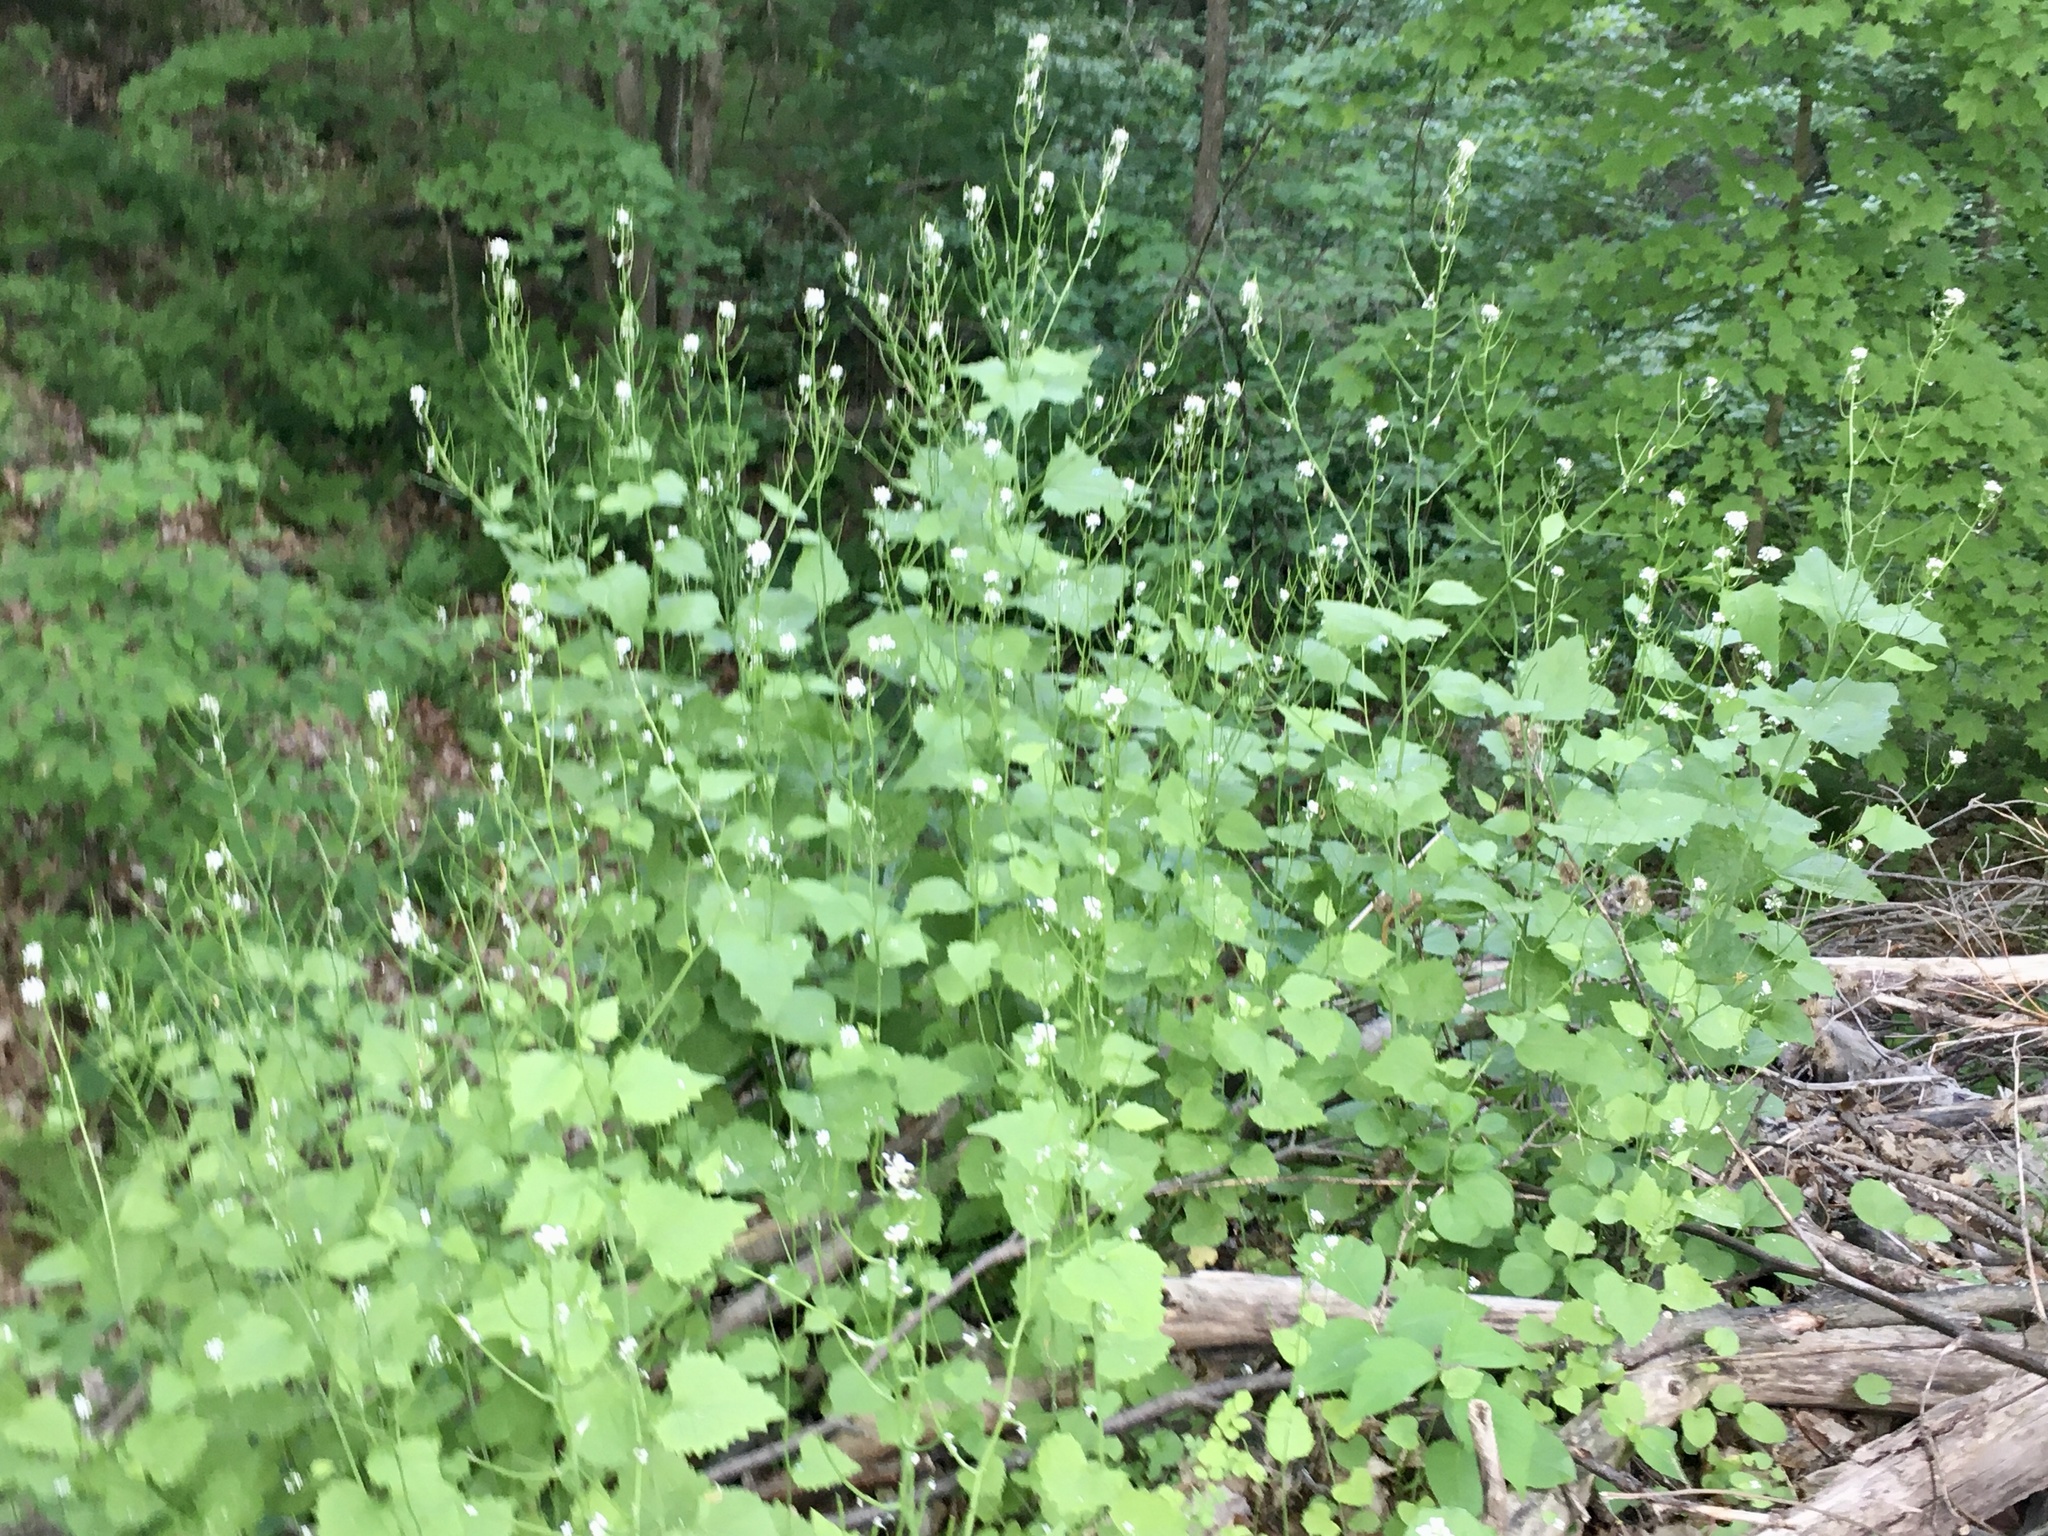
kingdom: Plantae
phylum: Tracheophyta
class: Magnoliopsida
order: Brassicales
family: Brassicaceae
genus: Alliaria
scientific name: Alliaria petiolata
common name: Garlic mustard
